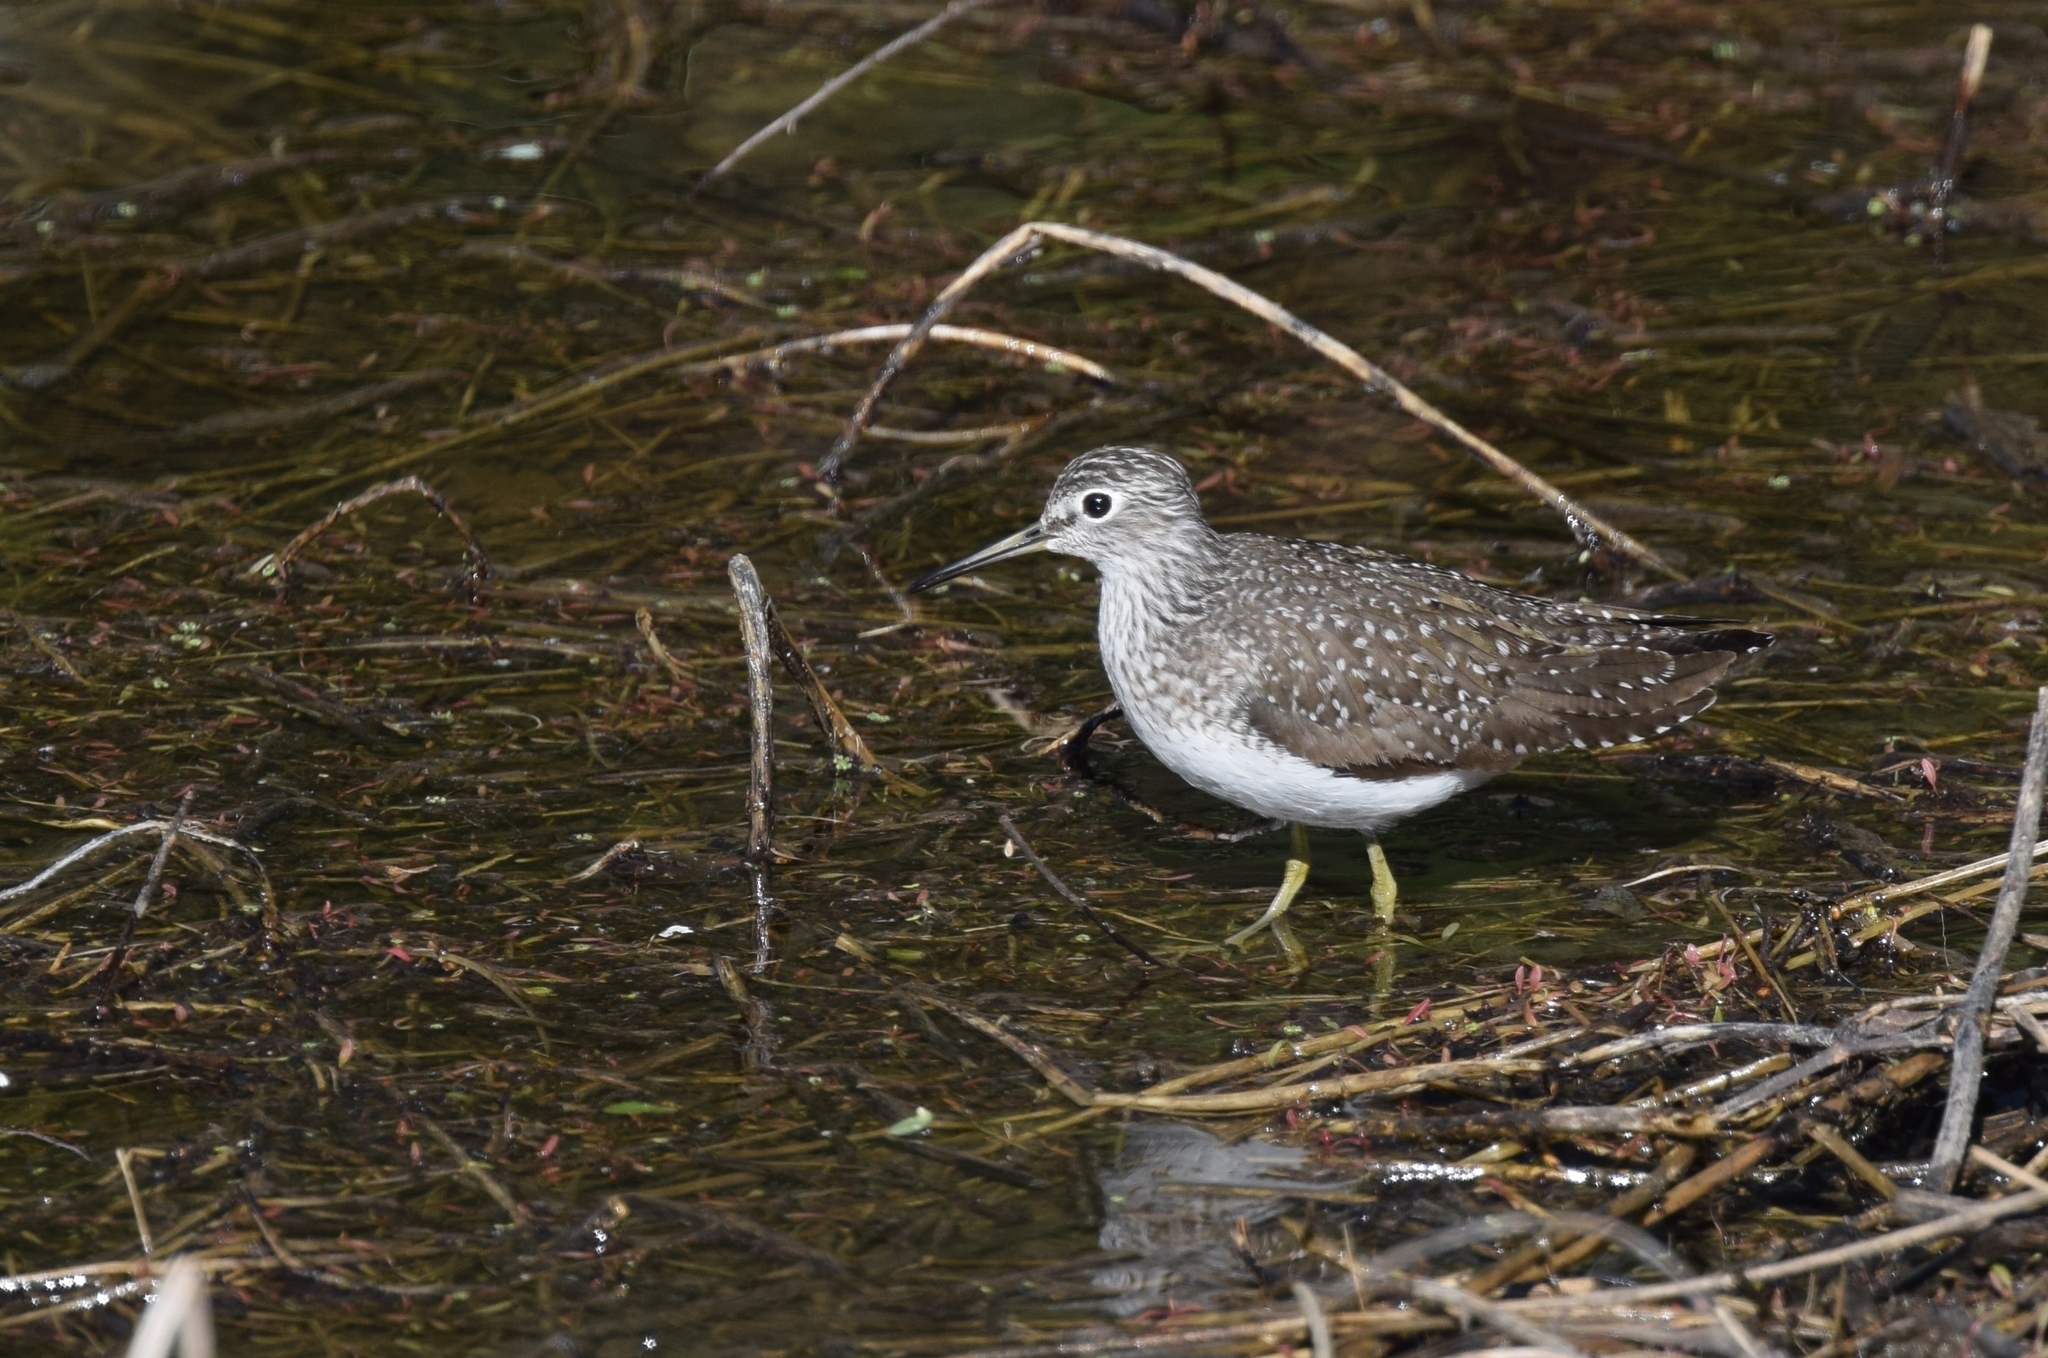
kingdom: Animalia
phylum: Chordata
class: Aves
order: Charadriiformes
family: Scolopacidae
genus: Tringa
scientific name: Tringa solitaria
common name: Solitary sandpiper
